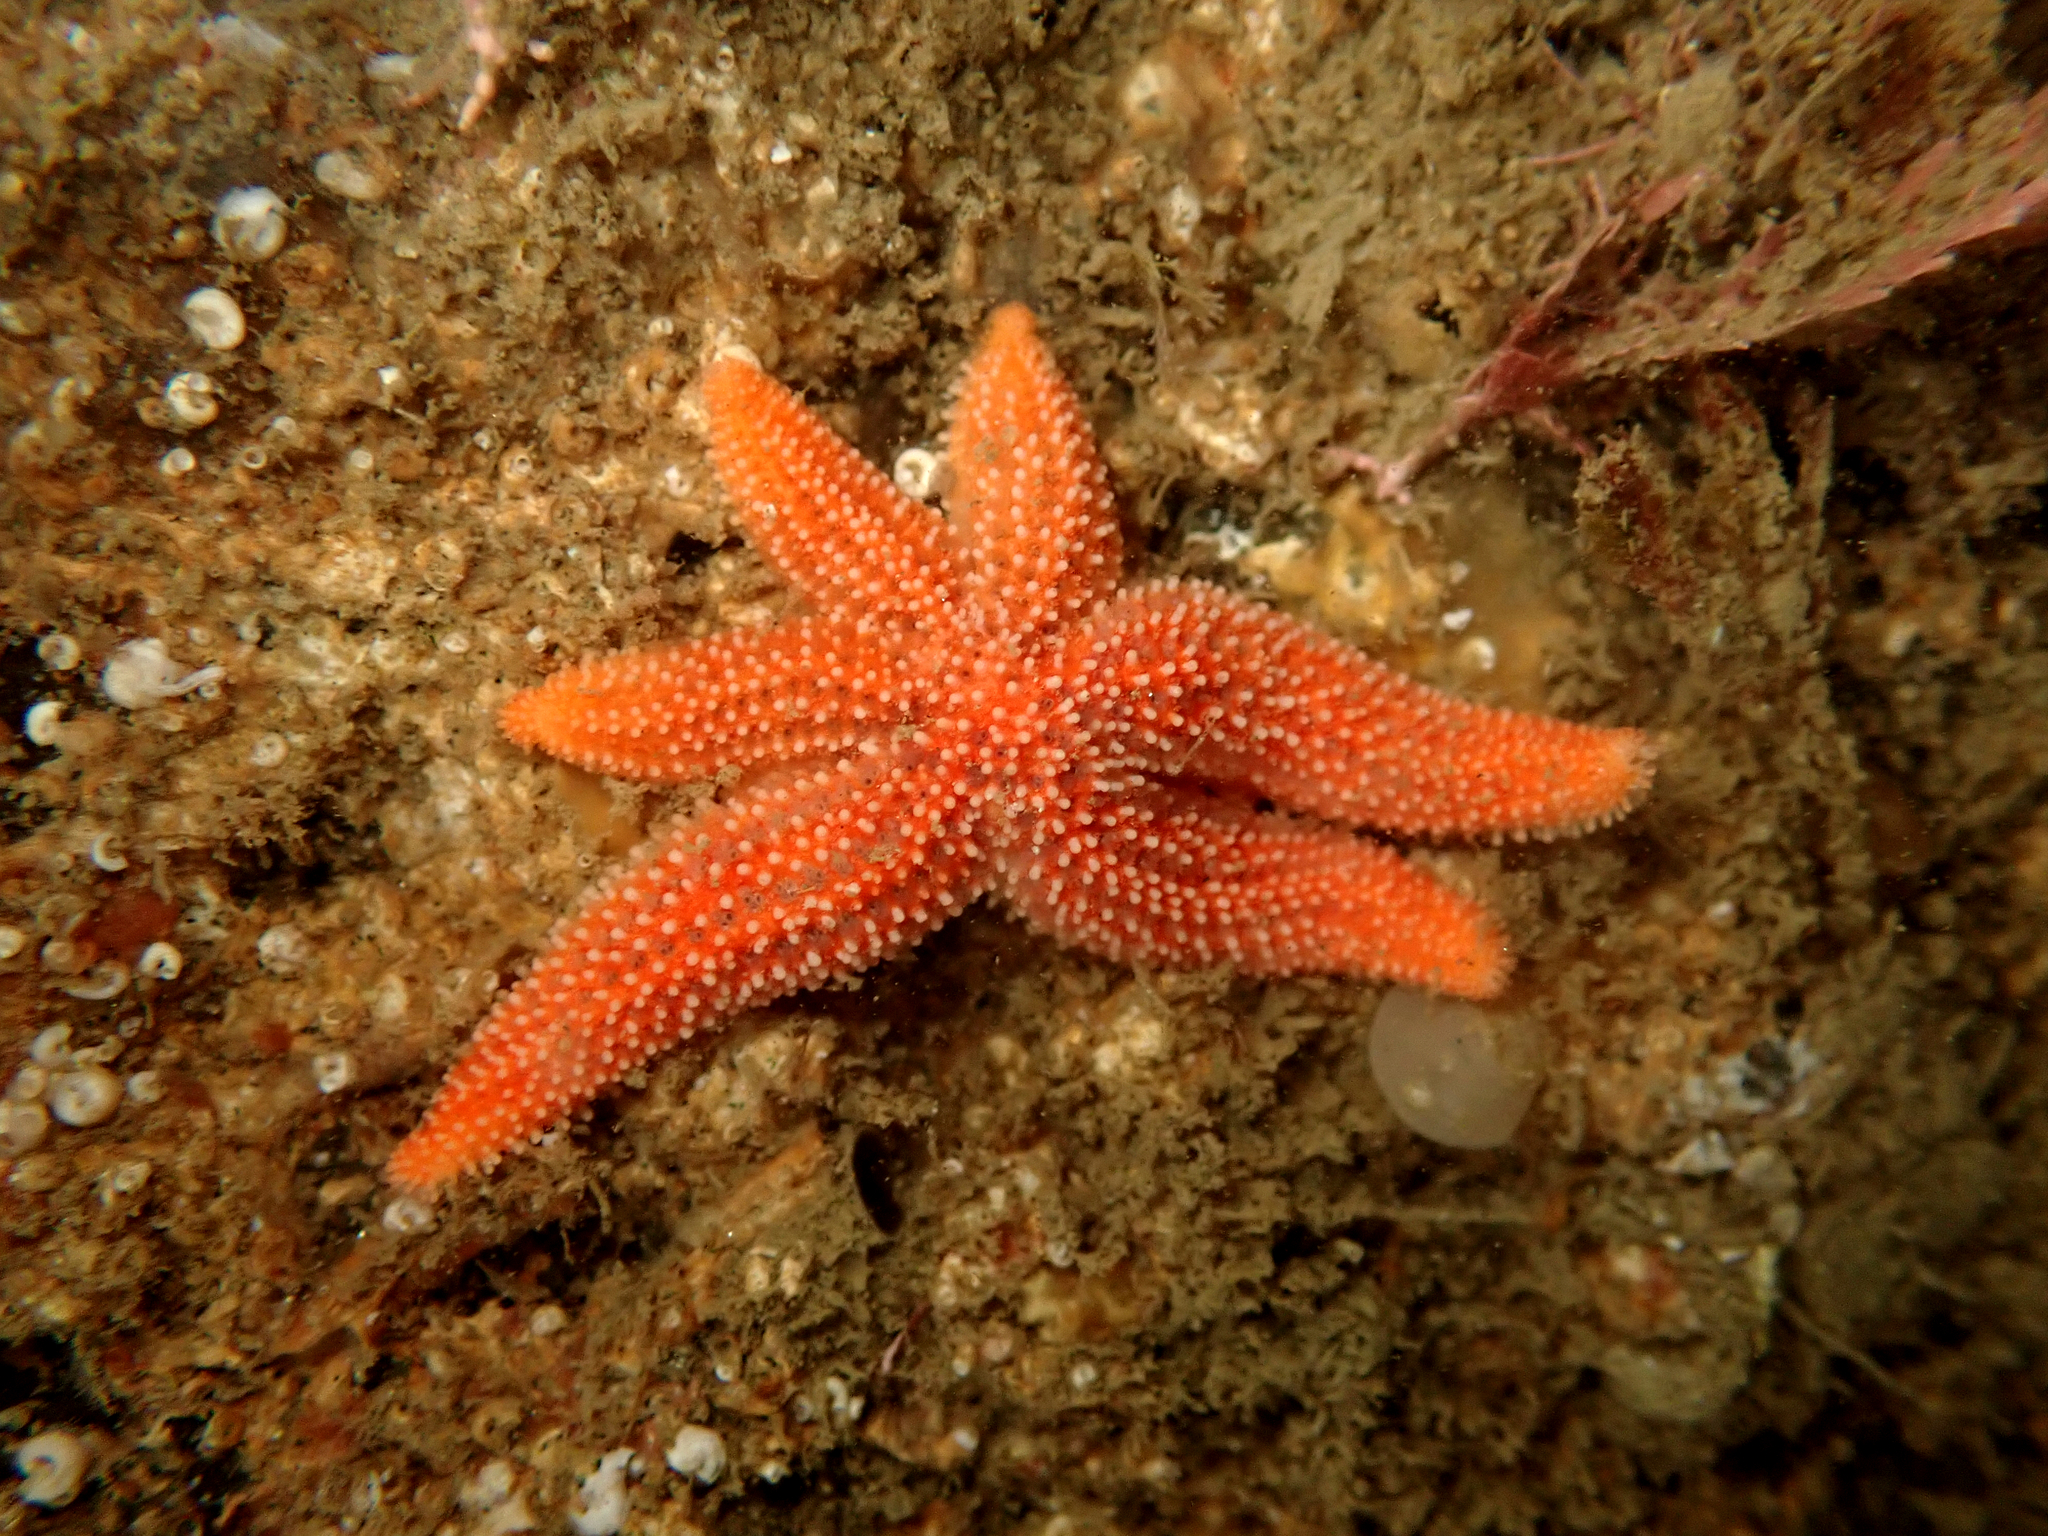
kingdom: Animalia
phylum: Echinodermata
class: Asteroidea
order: Forcipulatida
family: Stichasteridae
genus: Allostichaster
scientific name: Allostichaster insignis
